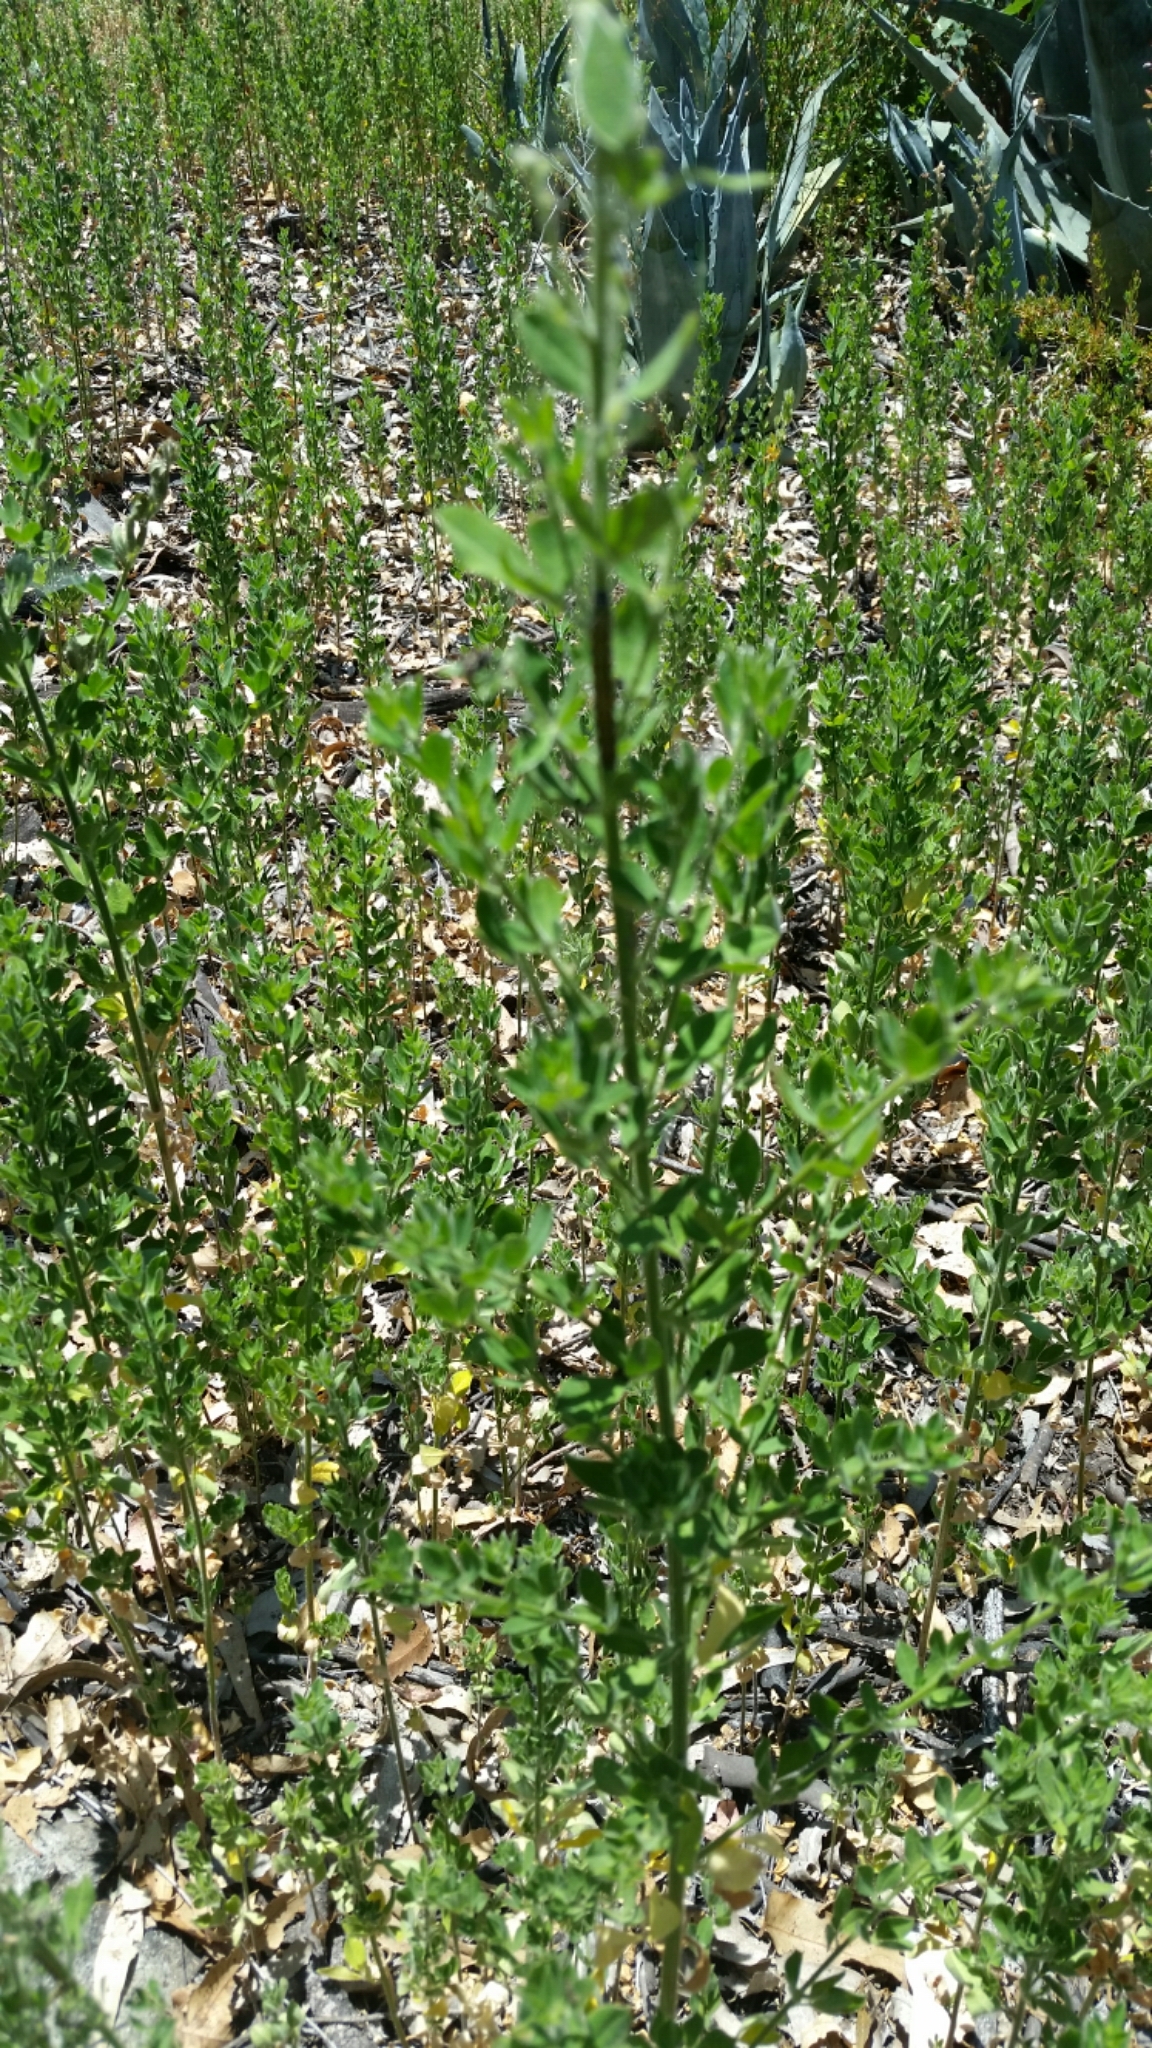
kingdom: Plantae
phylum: Tracheophyta
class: Magnoliopsida
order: Fabales
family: Fabaceae
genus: Genista
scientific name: Genista monspessulana
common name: Montpellier broom
